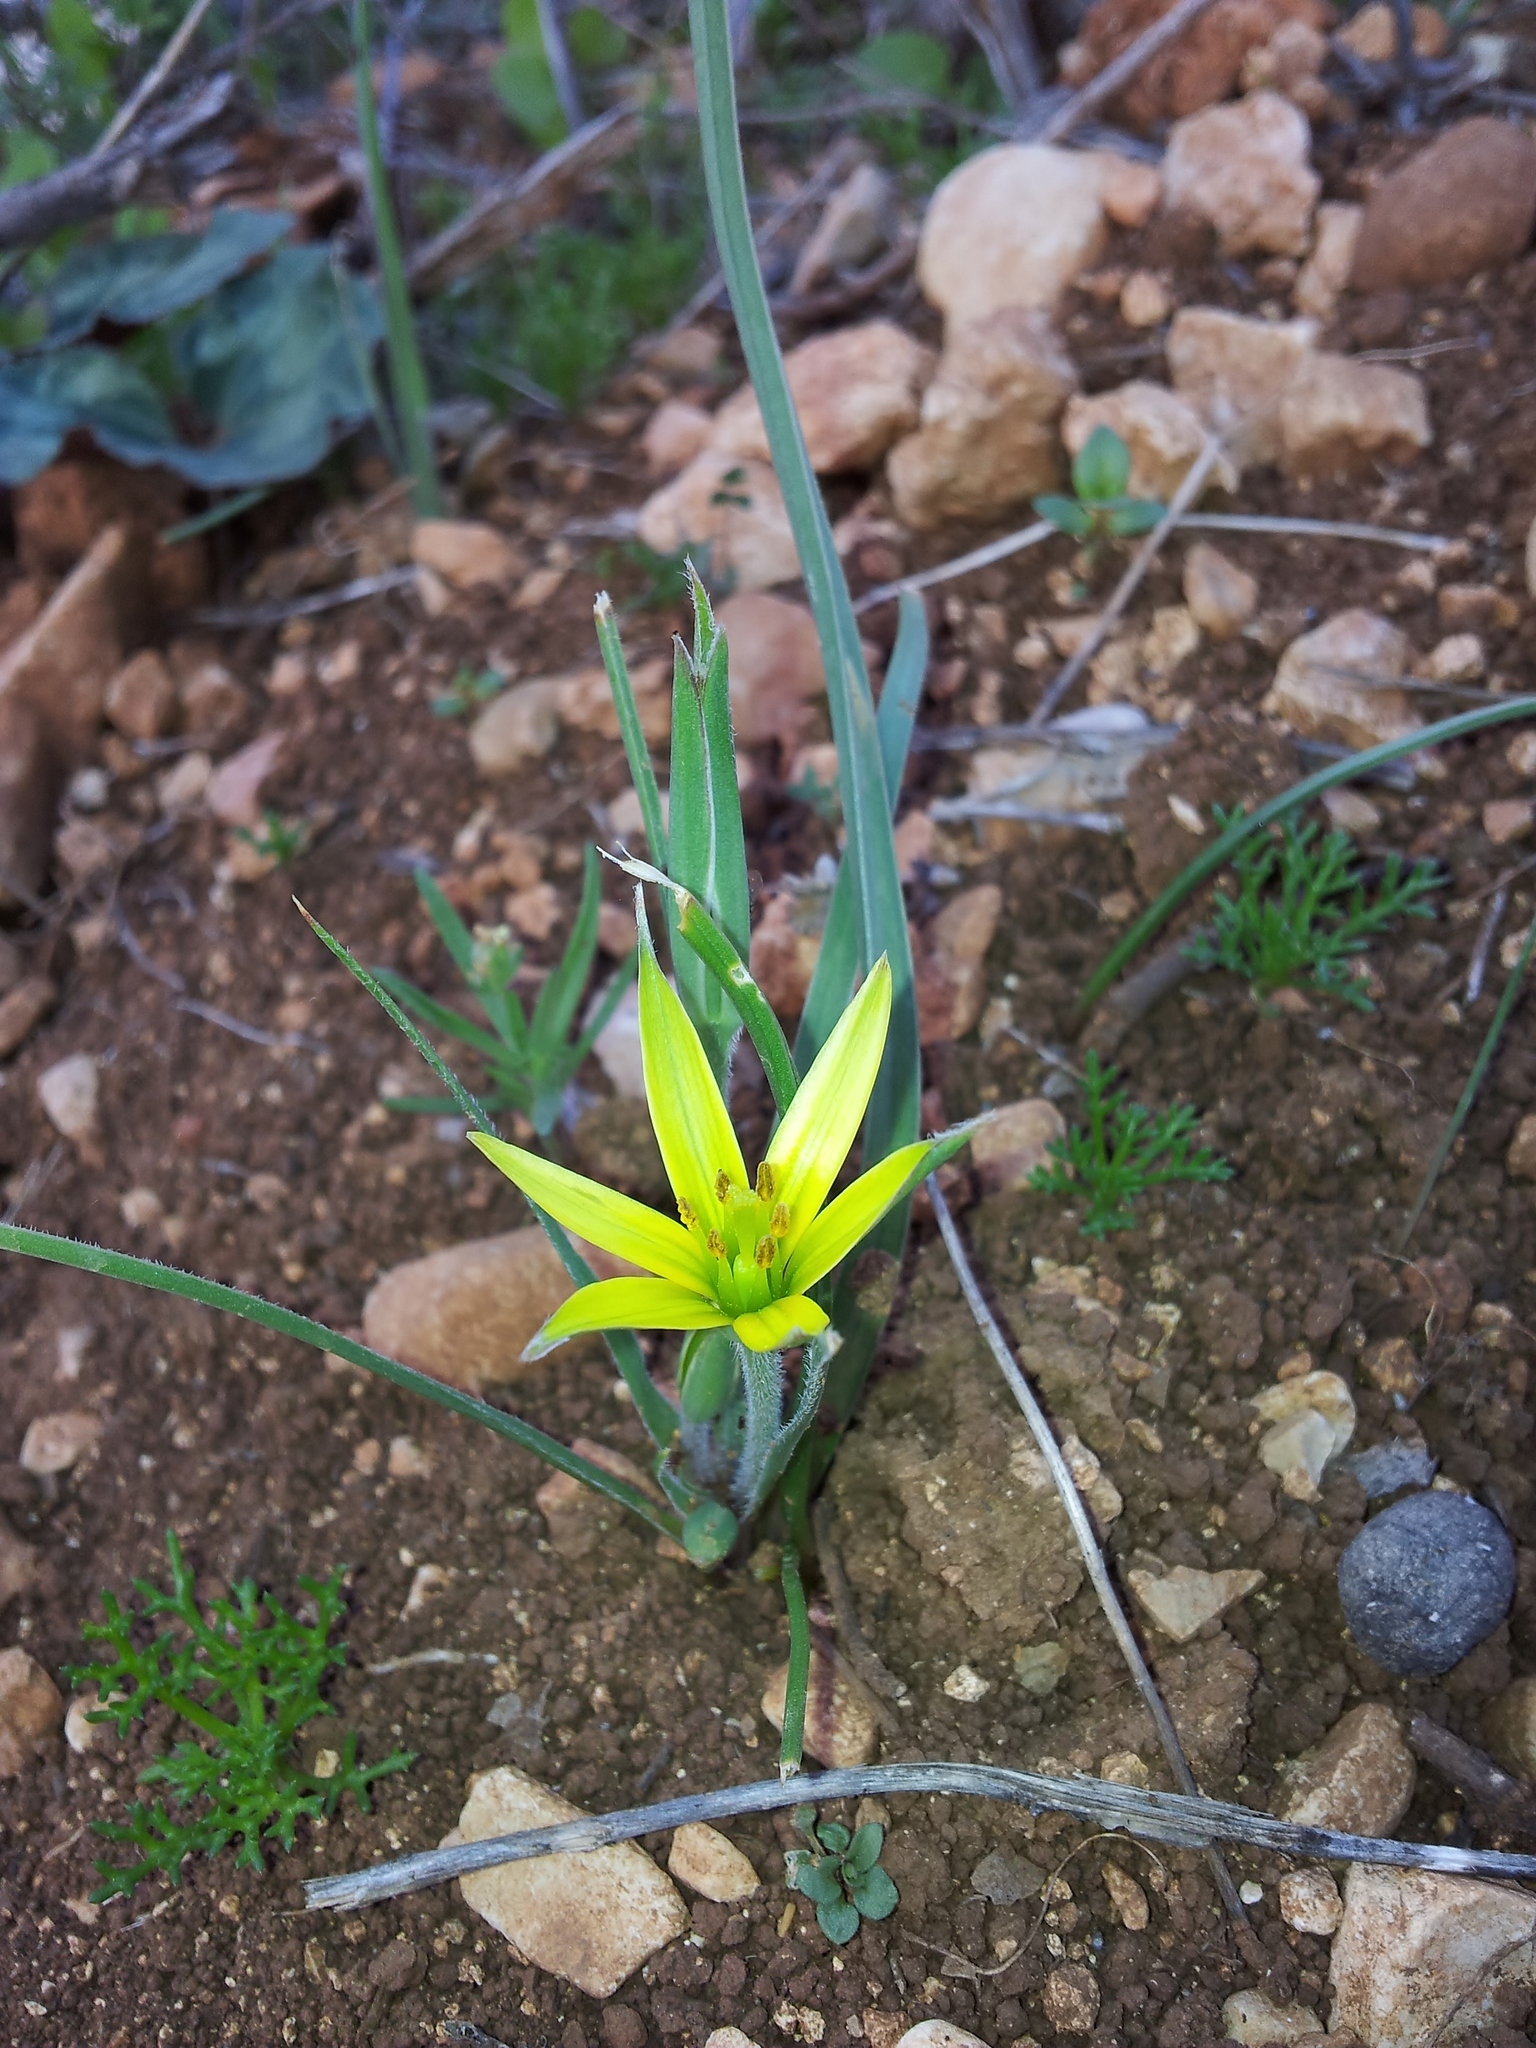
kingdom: Plantae
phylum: Tracheophyta
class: Liliopsida
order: Liliales
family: Liliaceae
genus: Gagea
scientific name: Gagea commutata
